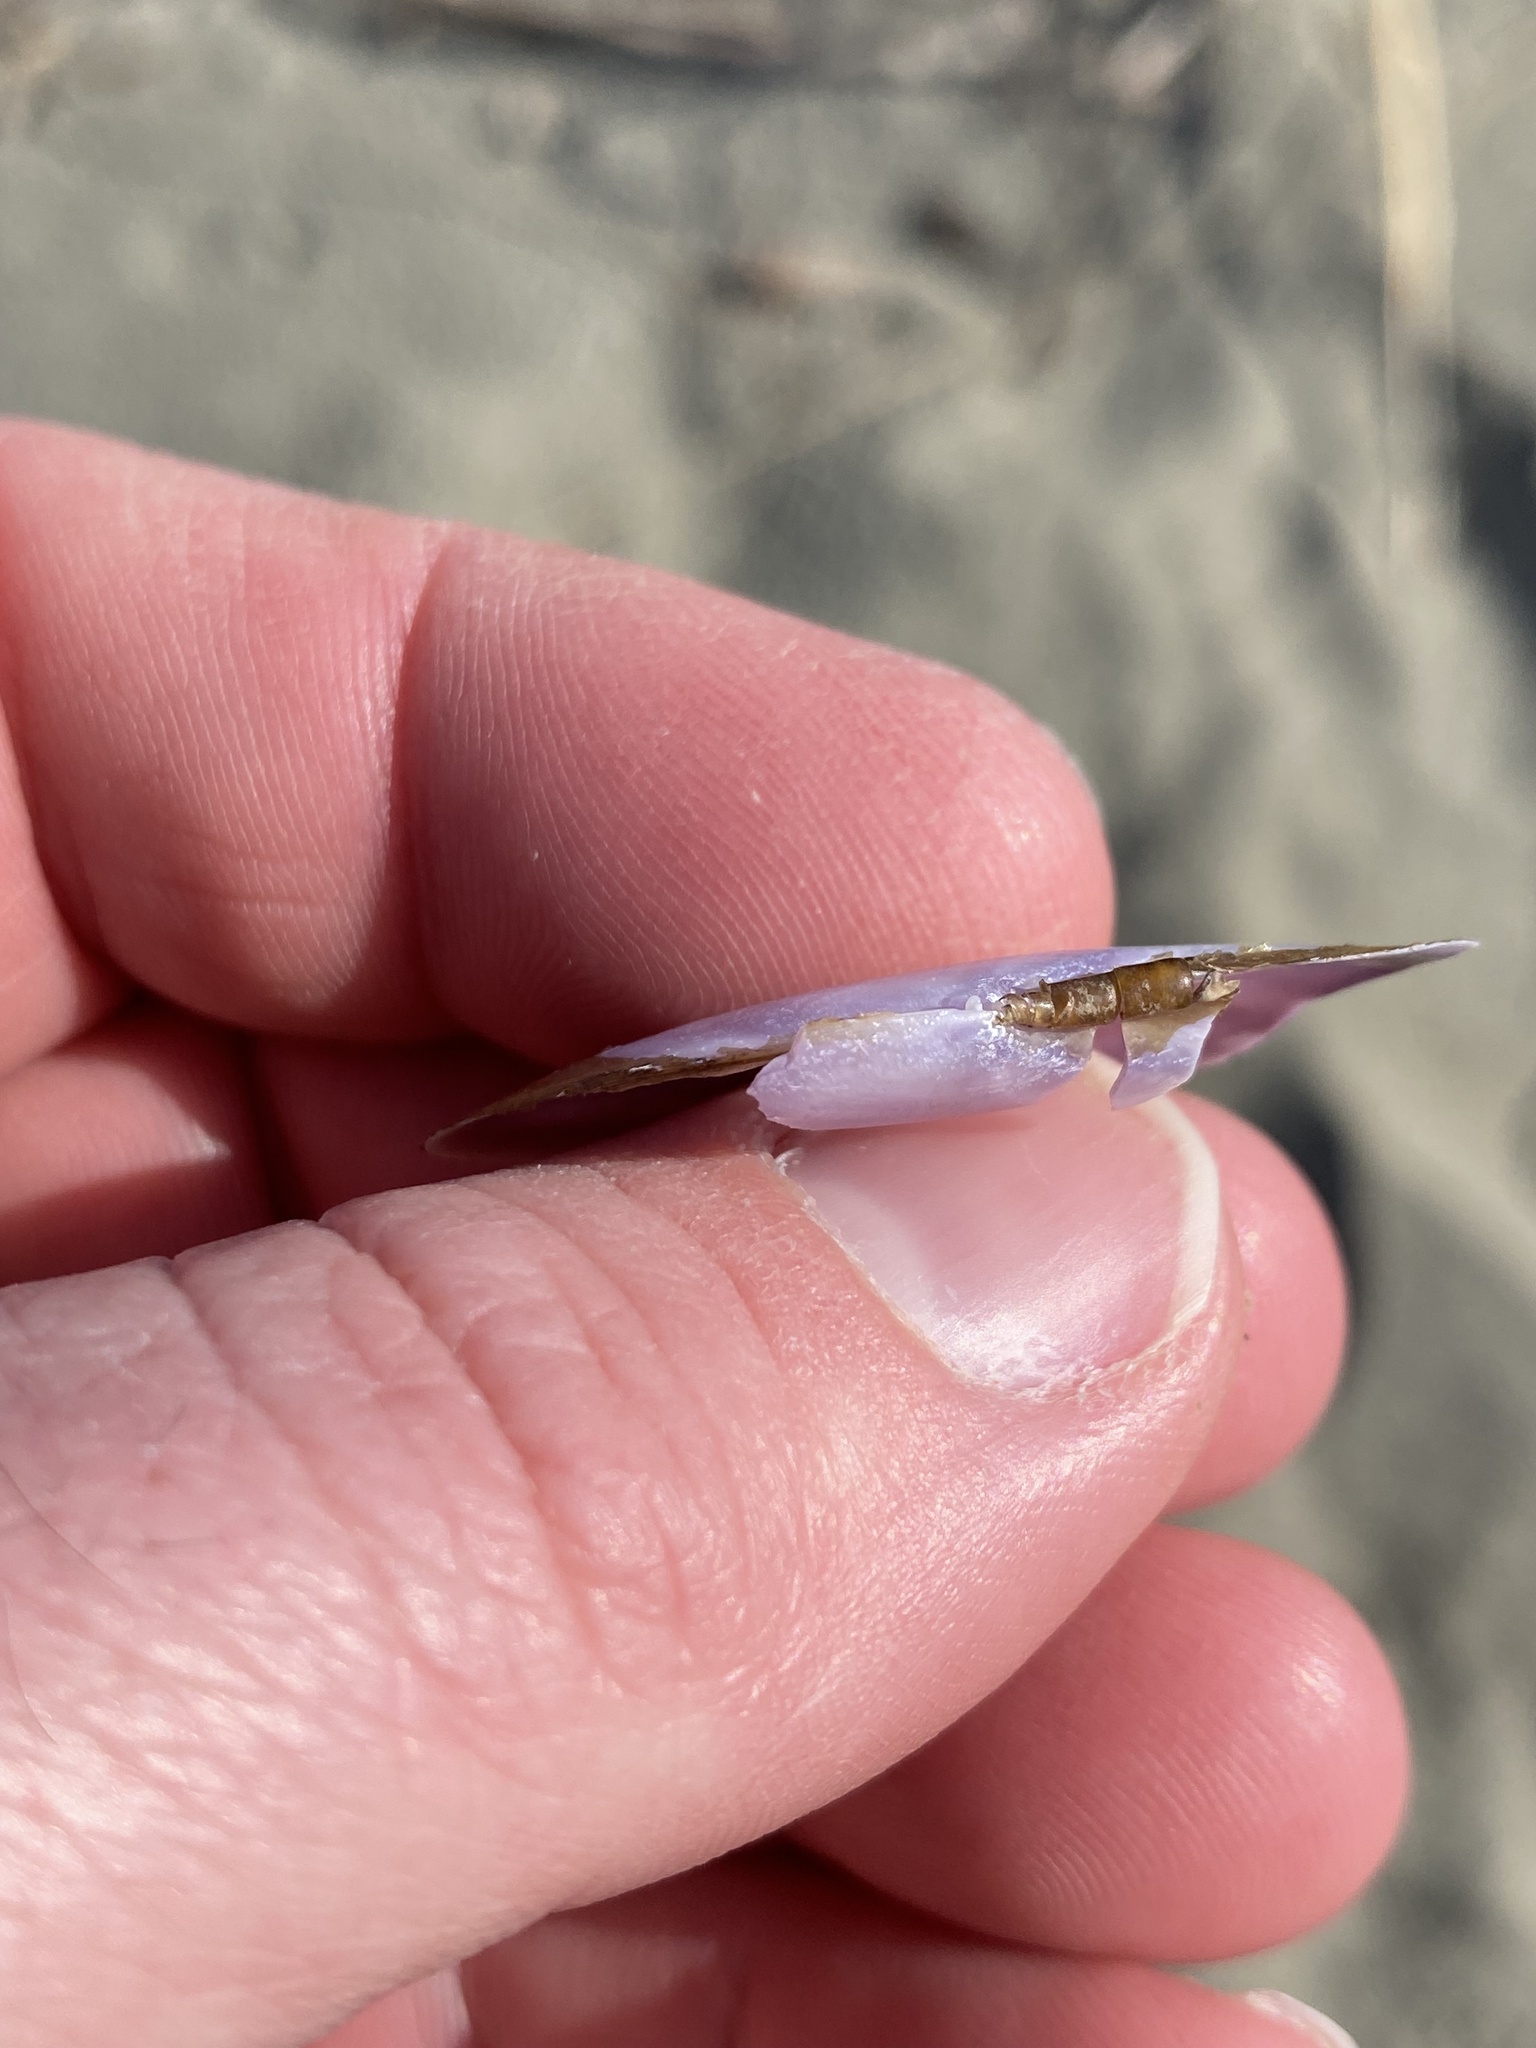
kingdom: Animalia
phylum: Mollusca
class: Bivalvia
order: Cardiida
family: Psammobiidae
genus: Hiatula
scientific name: Hiatula nitida
